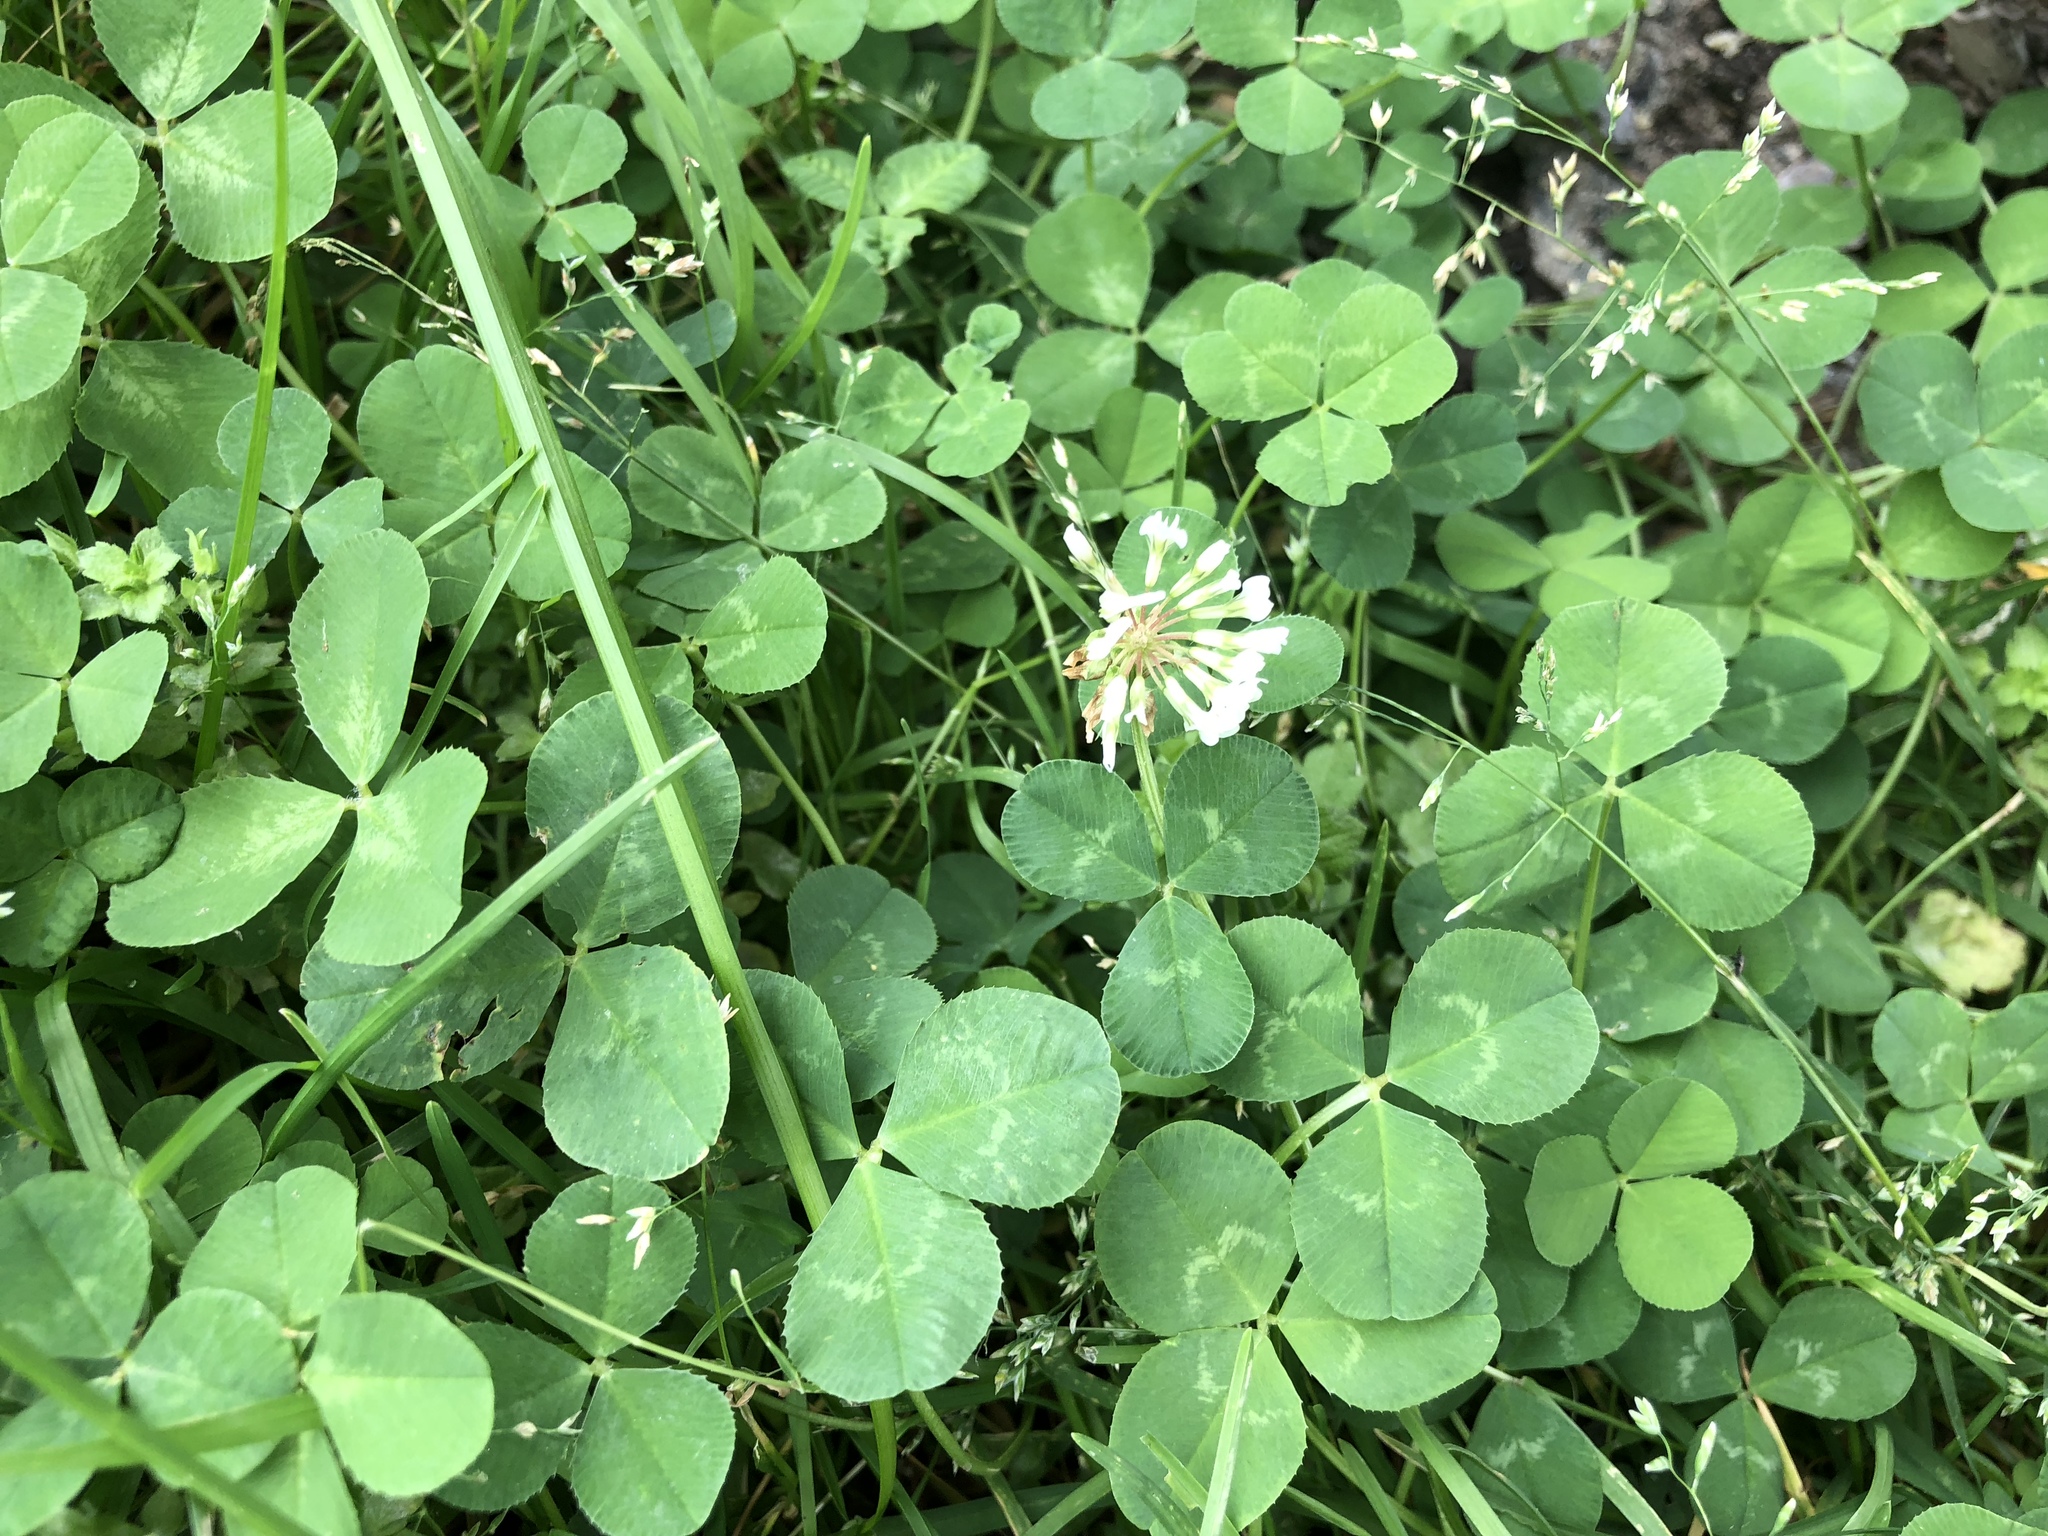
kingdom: Plantae
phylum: Tracheophyta
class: Magnoliopsida
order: Fabales
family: Fabaceae
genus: Trifolium
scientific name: Trifolium repens
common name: White clover
